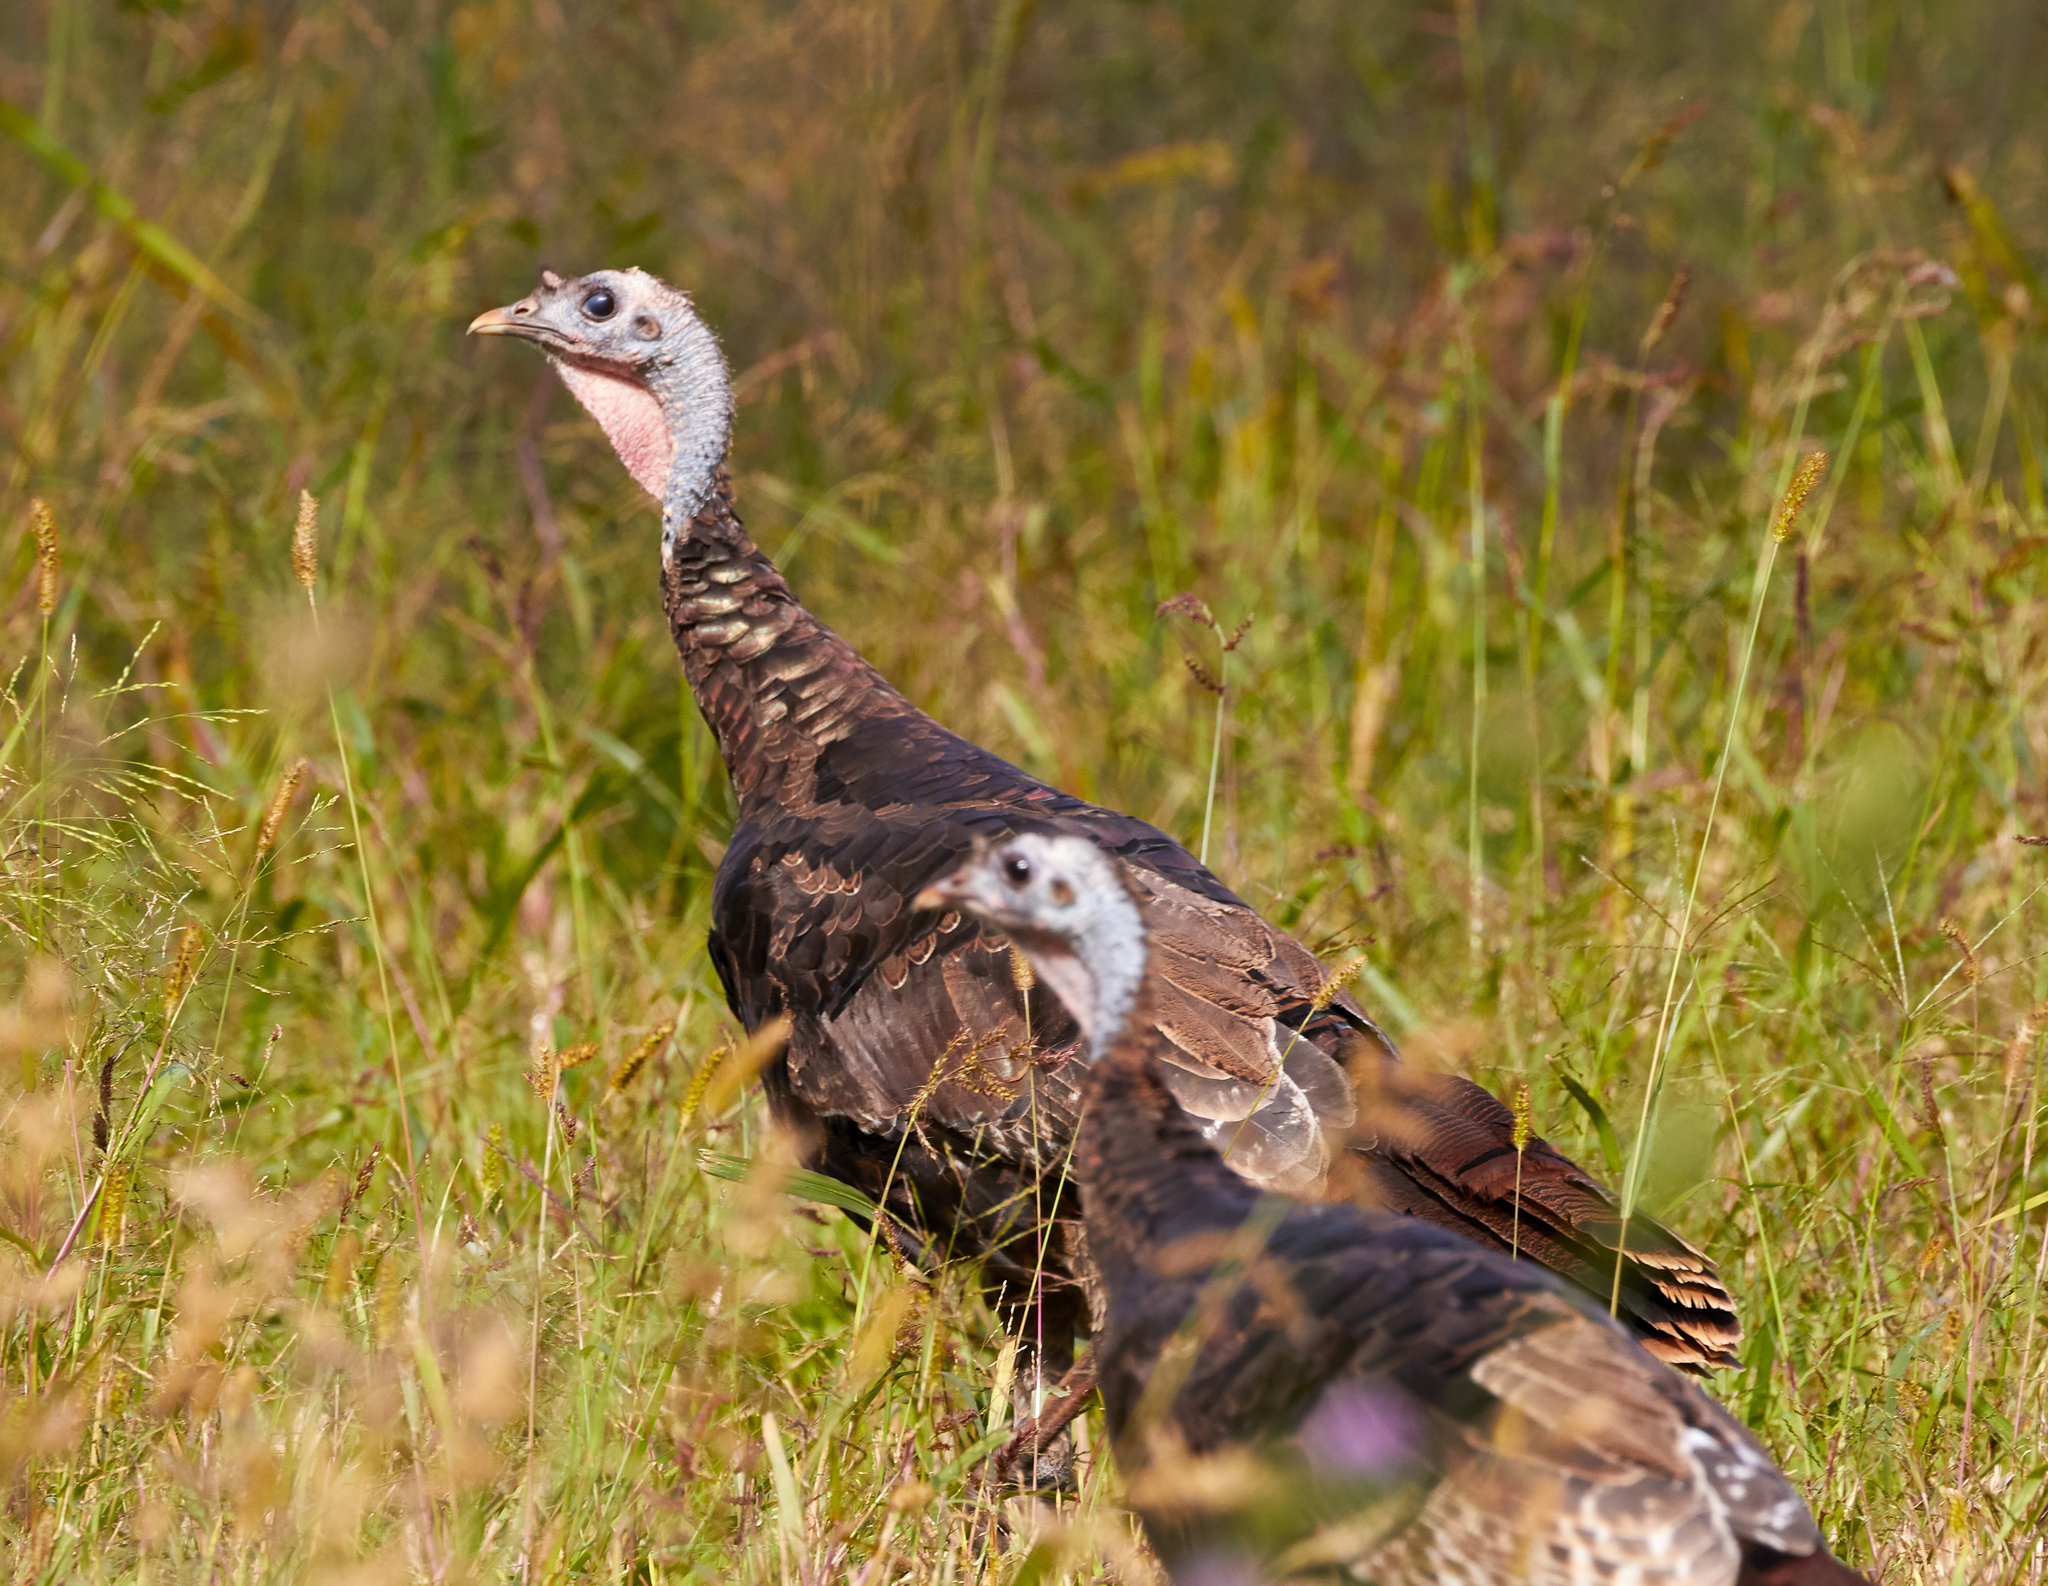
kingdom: Animalia
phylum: Chordata
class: Aves
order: Galliformes
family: Phasianidae
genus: Meleagris
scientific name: Meleagris gallopavo
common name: Wild turkey
